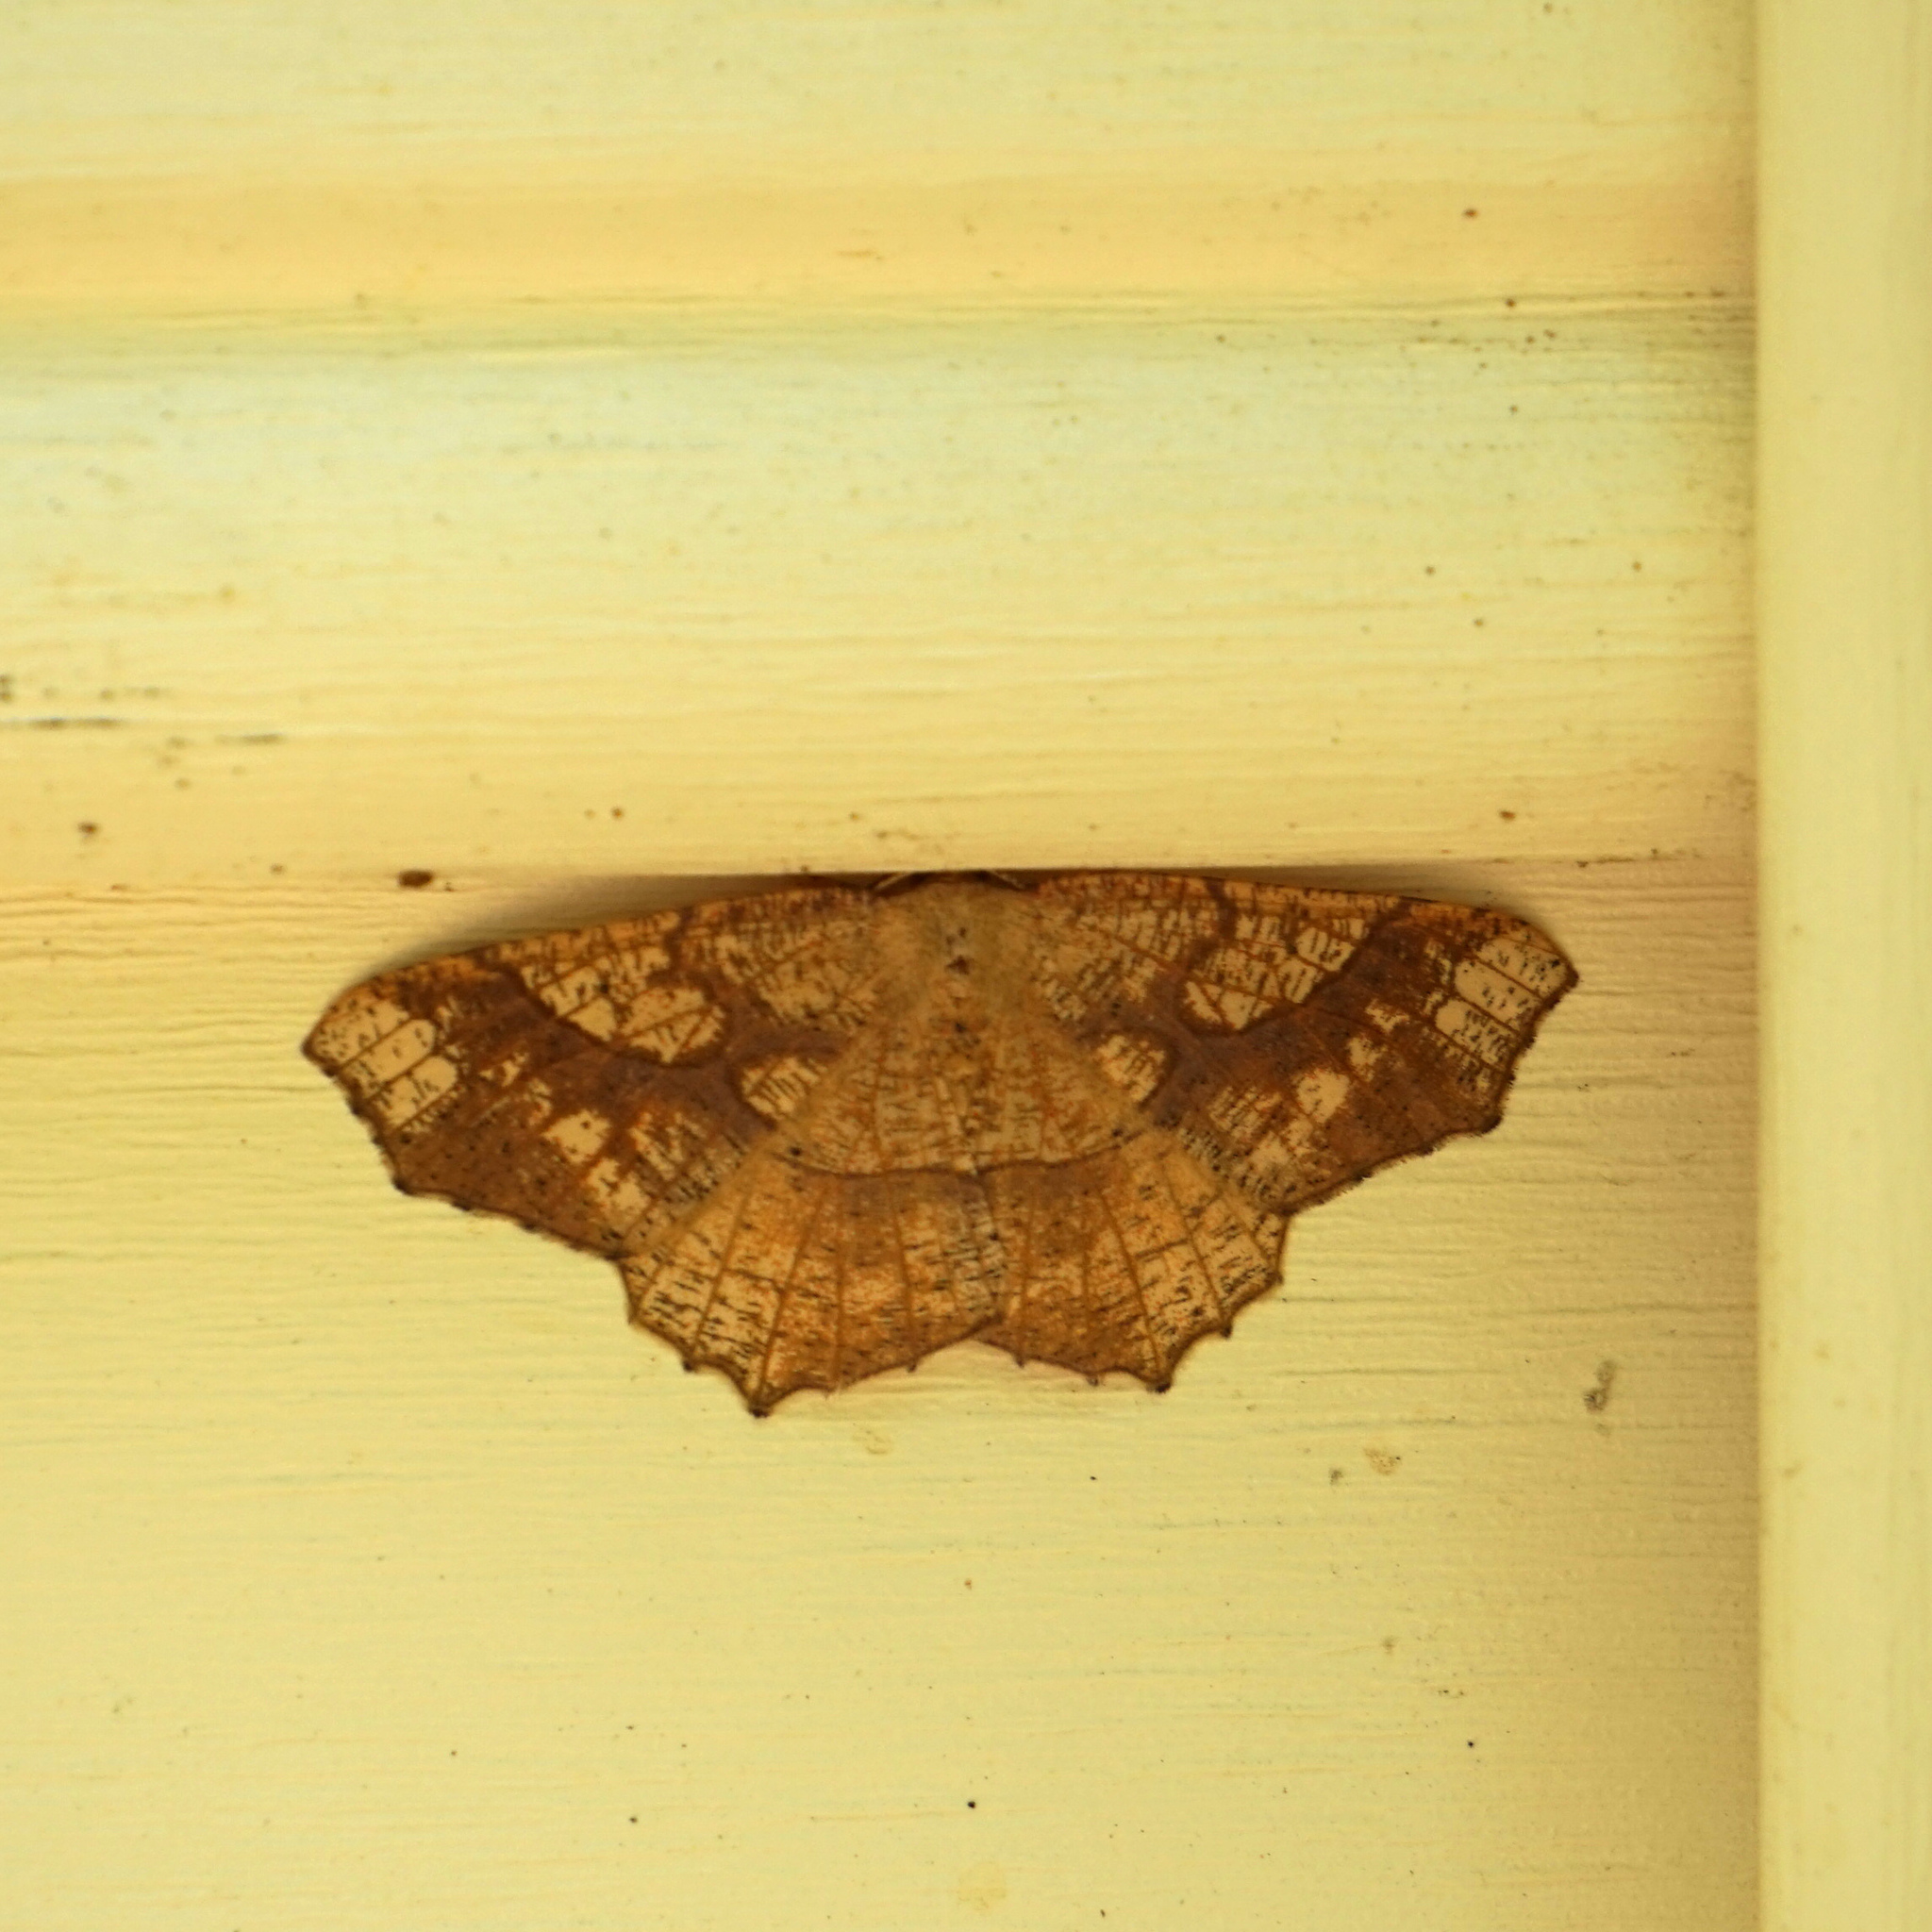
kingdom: Animalia
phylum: Arthropoda
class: Insecta
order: Lepidoptera
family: Geometridae
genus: Besma
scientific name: Besma quercivoraria
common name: Oak besma
